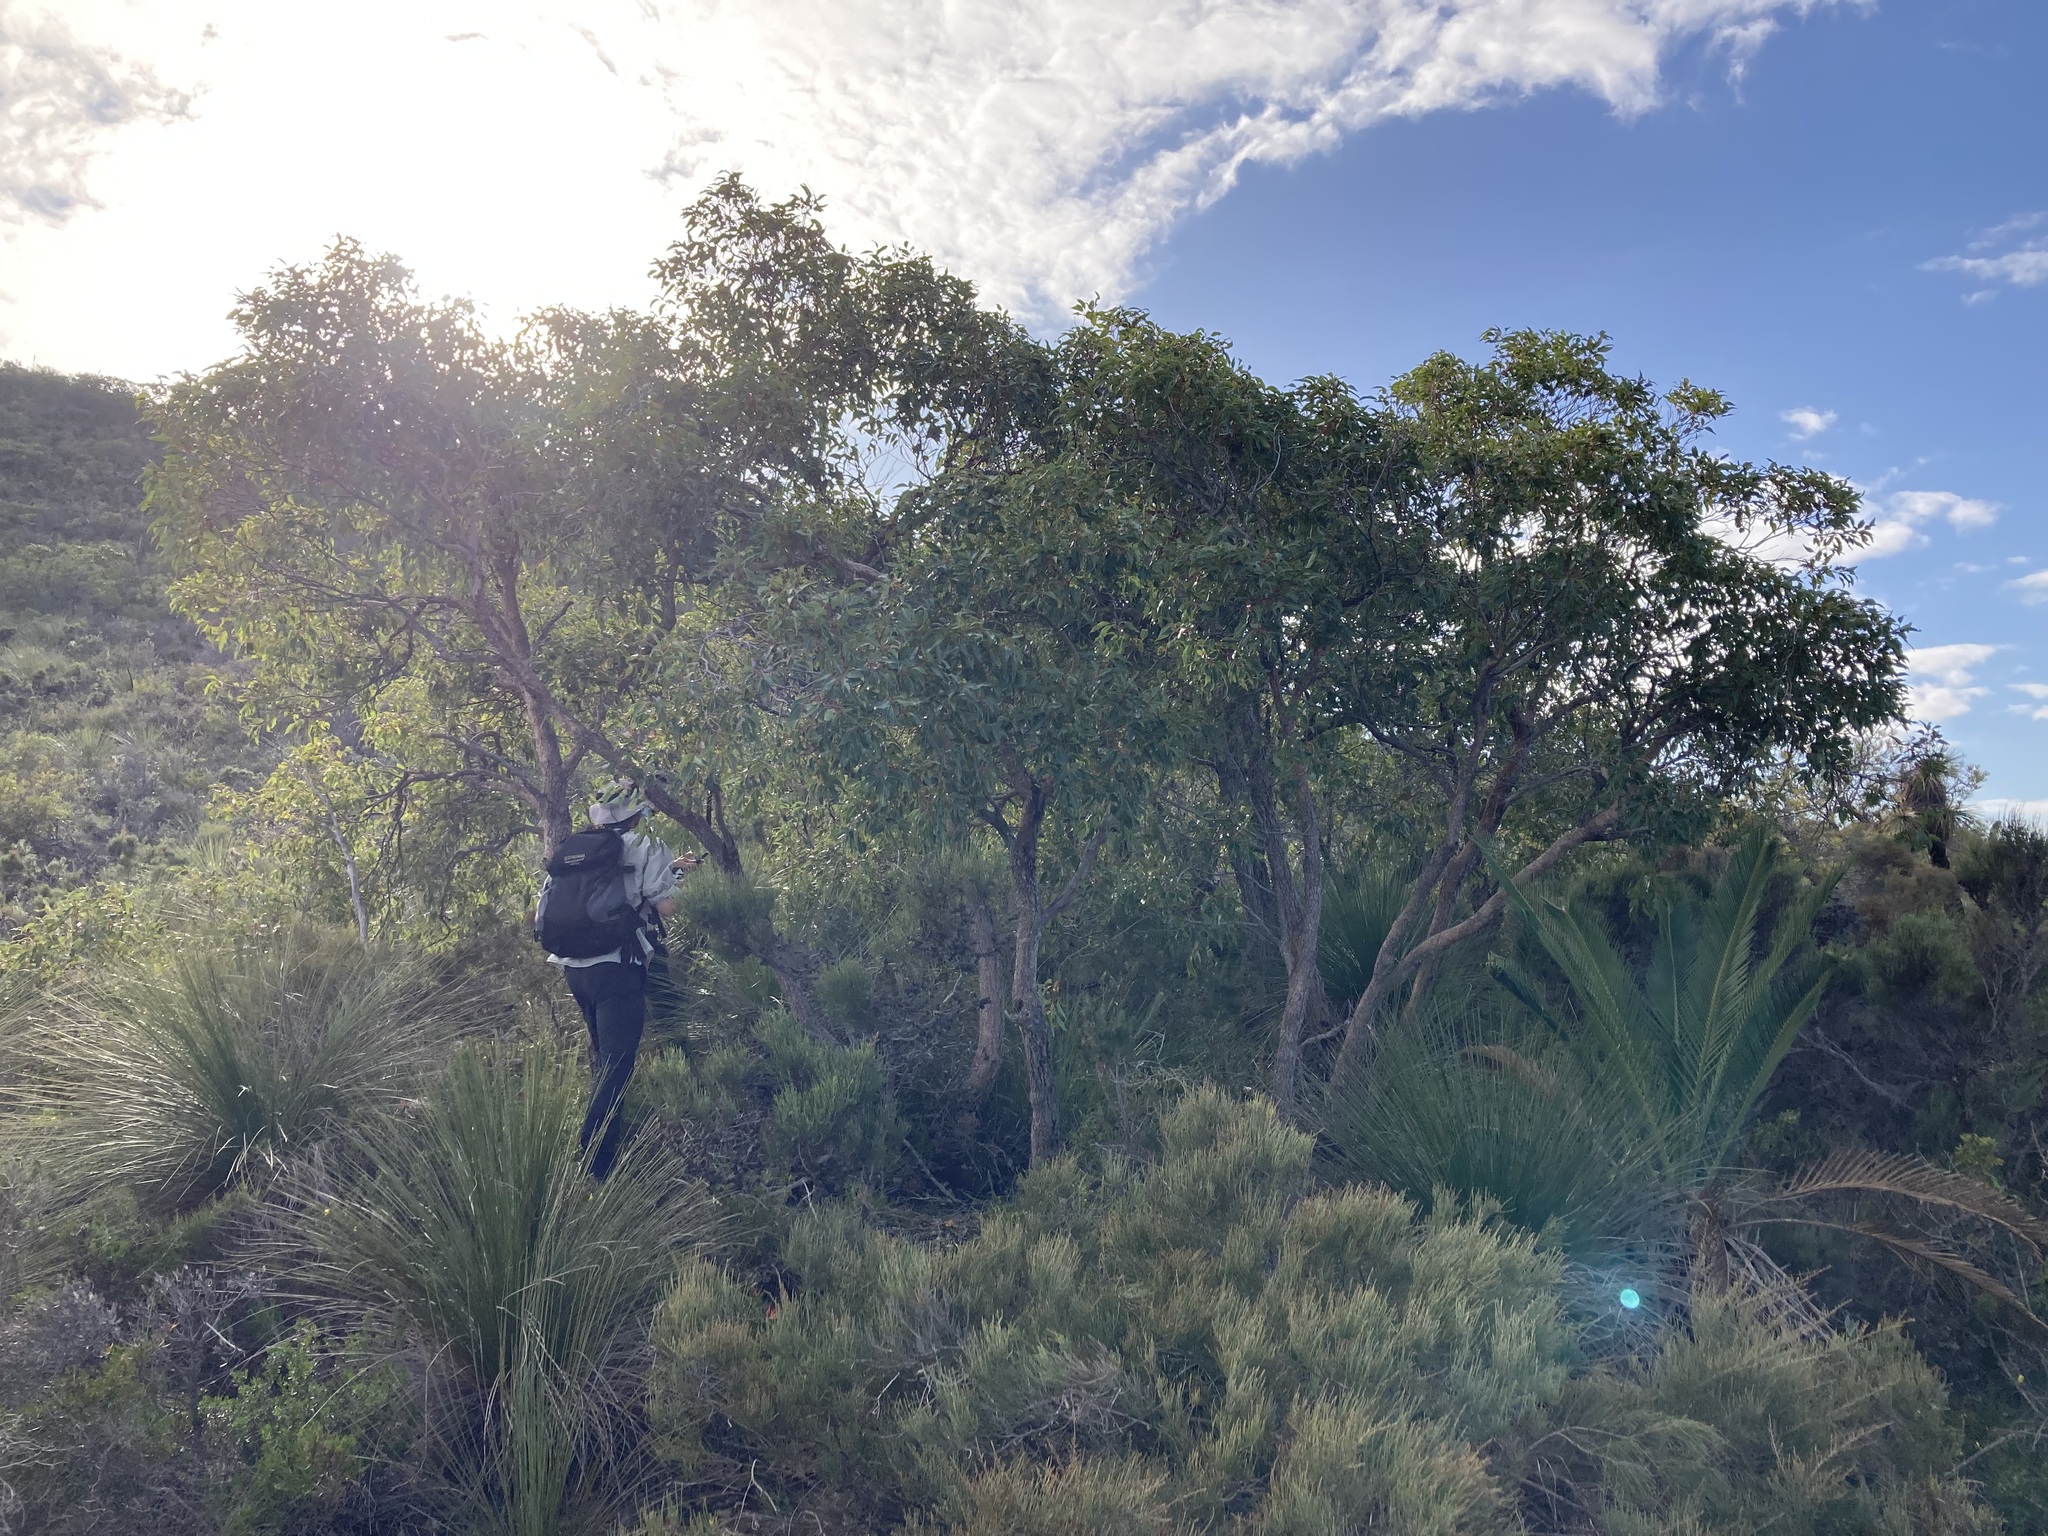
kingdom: Plantae
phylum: Tracheophyta
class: Magnoliopsida
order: Myrtales
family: Myrtaceae
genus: Corymbia
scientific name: Corymbia haematoxylon
